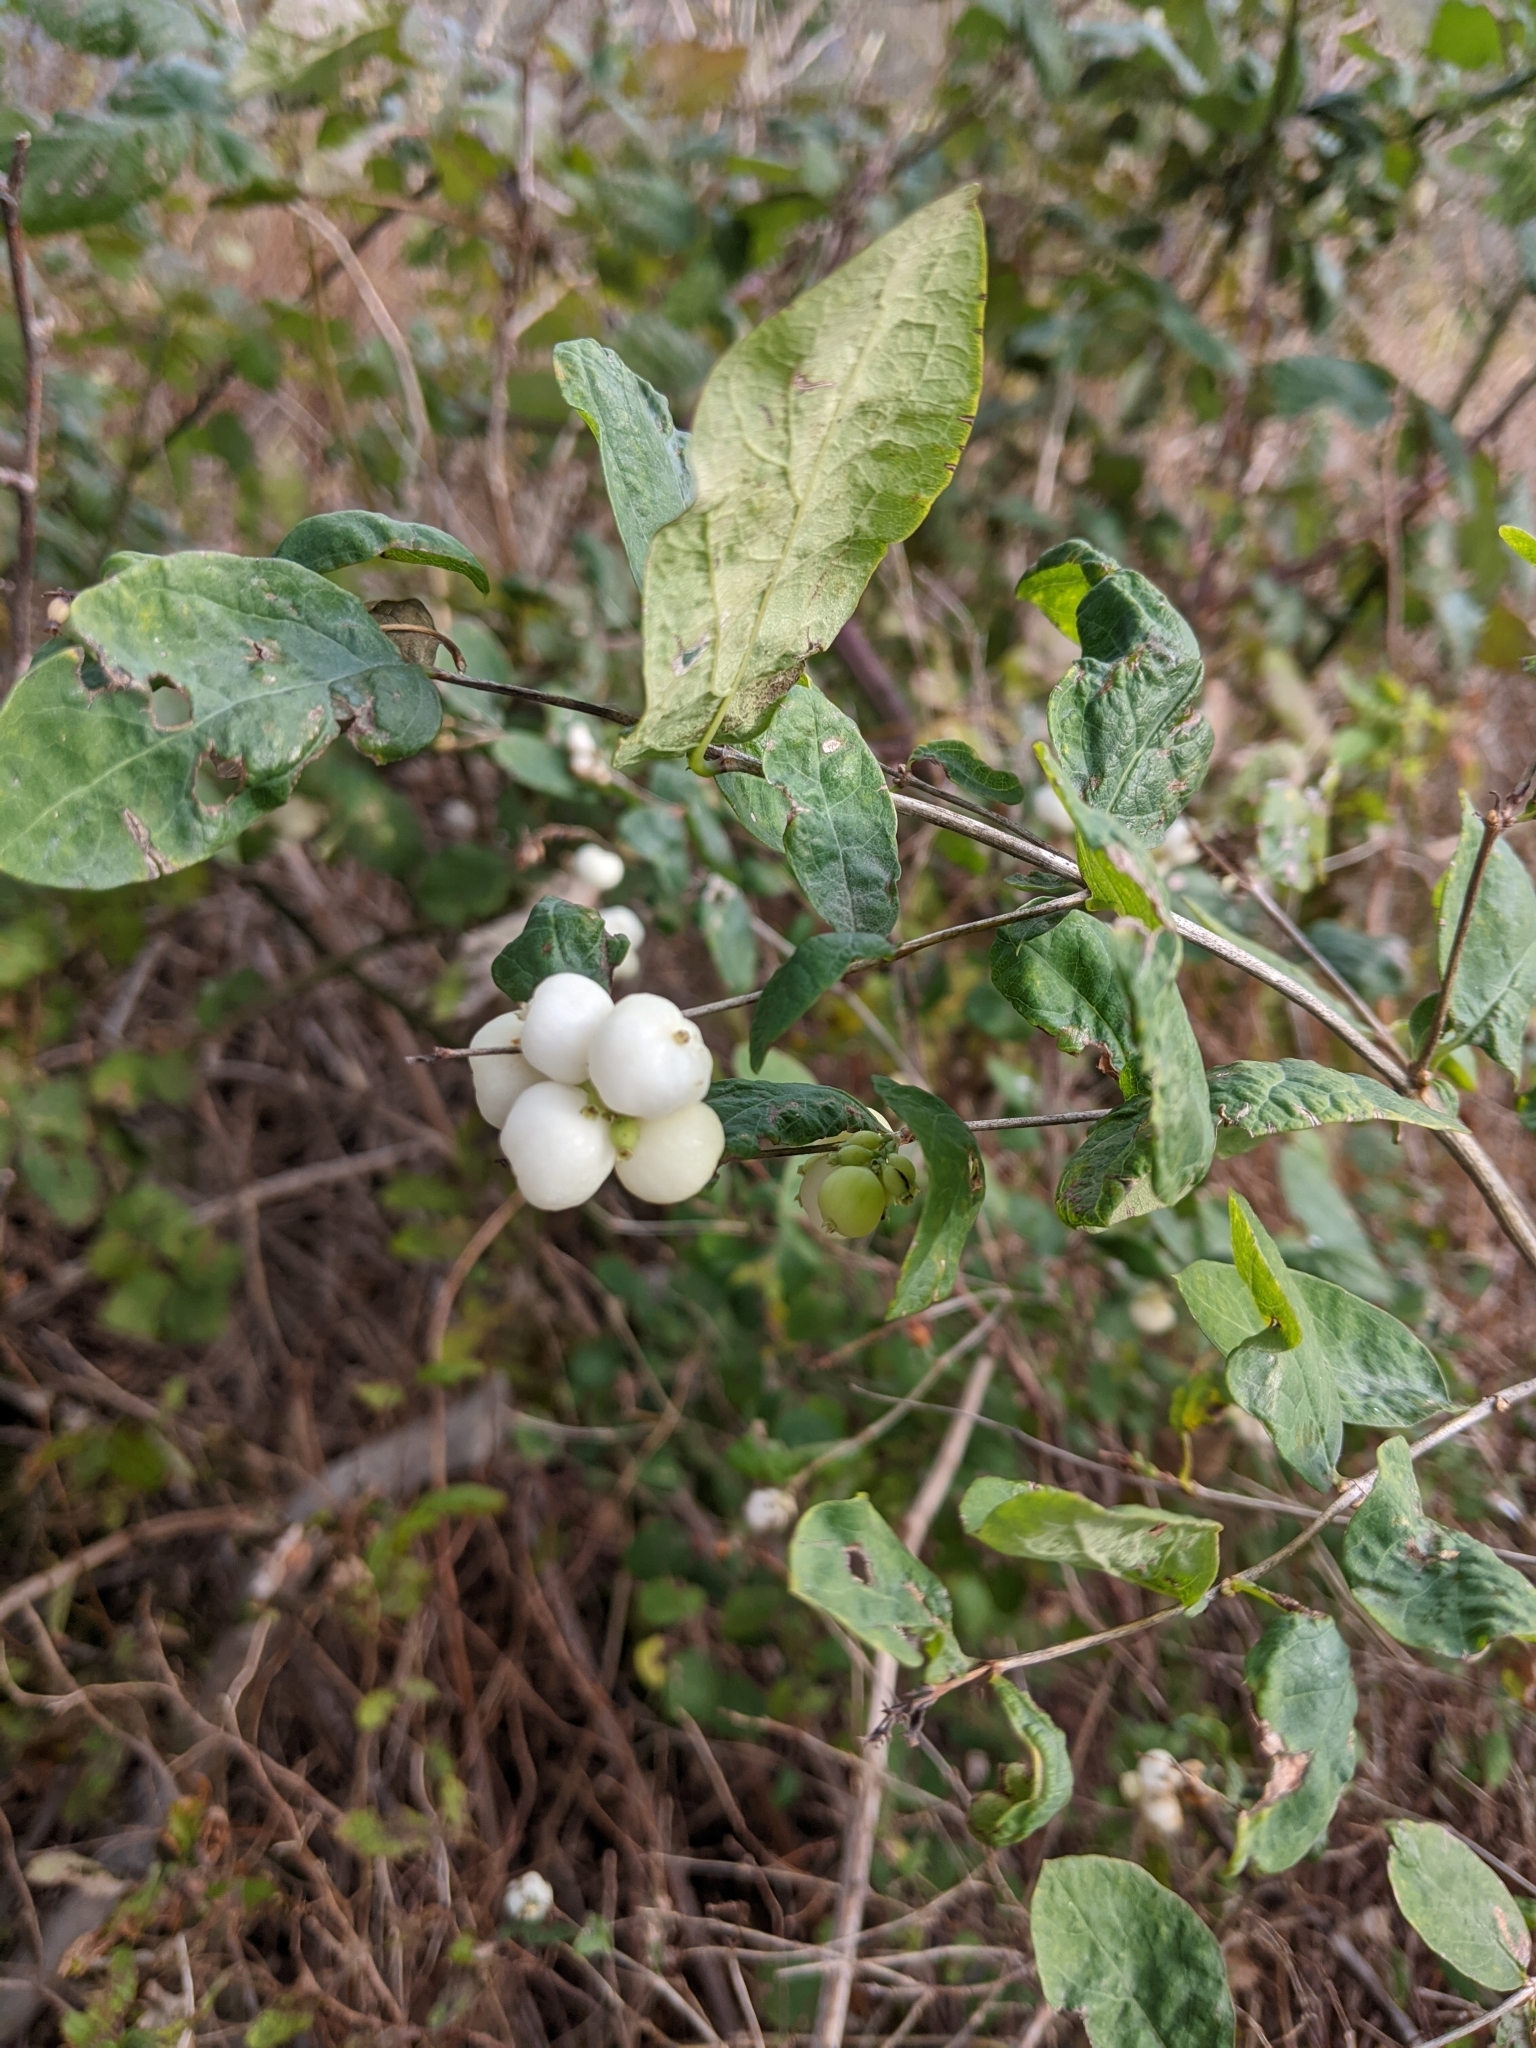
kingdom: Plantae
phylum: Tracheophyta
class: Magnoliopsida
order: Dipsacales
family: Caprifoliaceae
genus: Symphoricarpos
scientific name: Symphoricarpos albus
